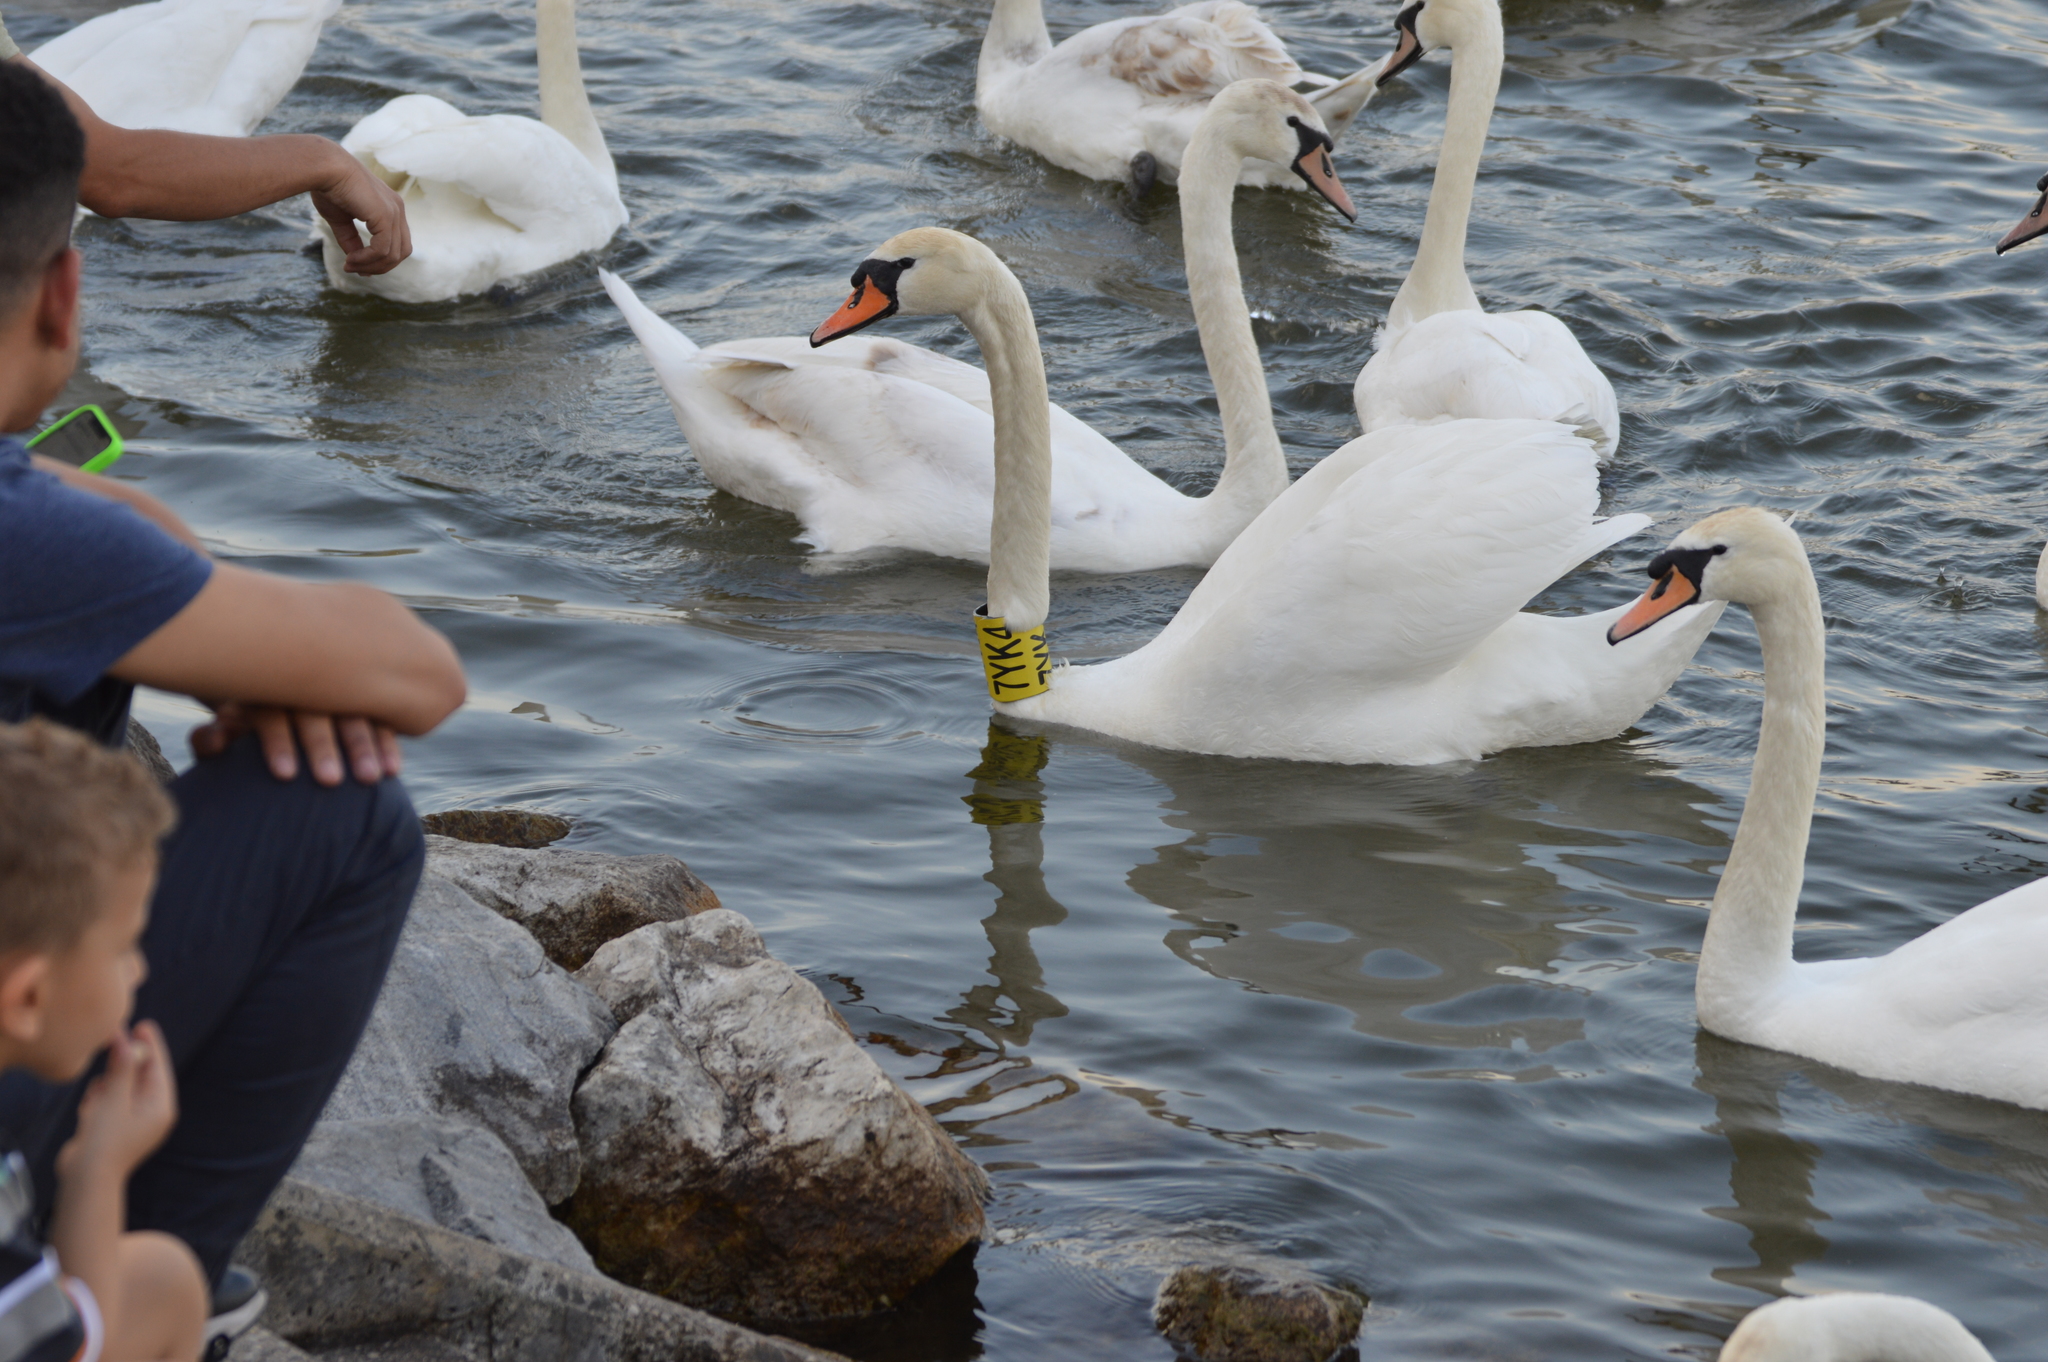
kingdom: Animalia
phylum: Chordata
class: Aves
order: Anseriformes
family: Anatidae
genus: Cygnus
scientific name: Cygnus olor
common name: Mute swan
